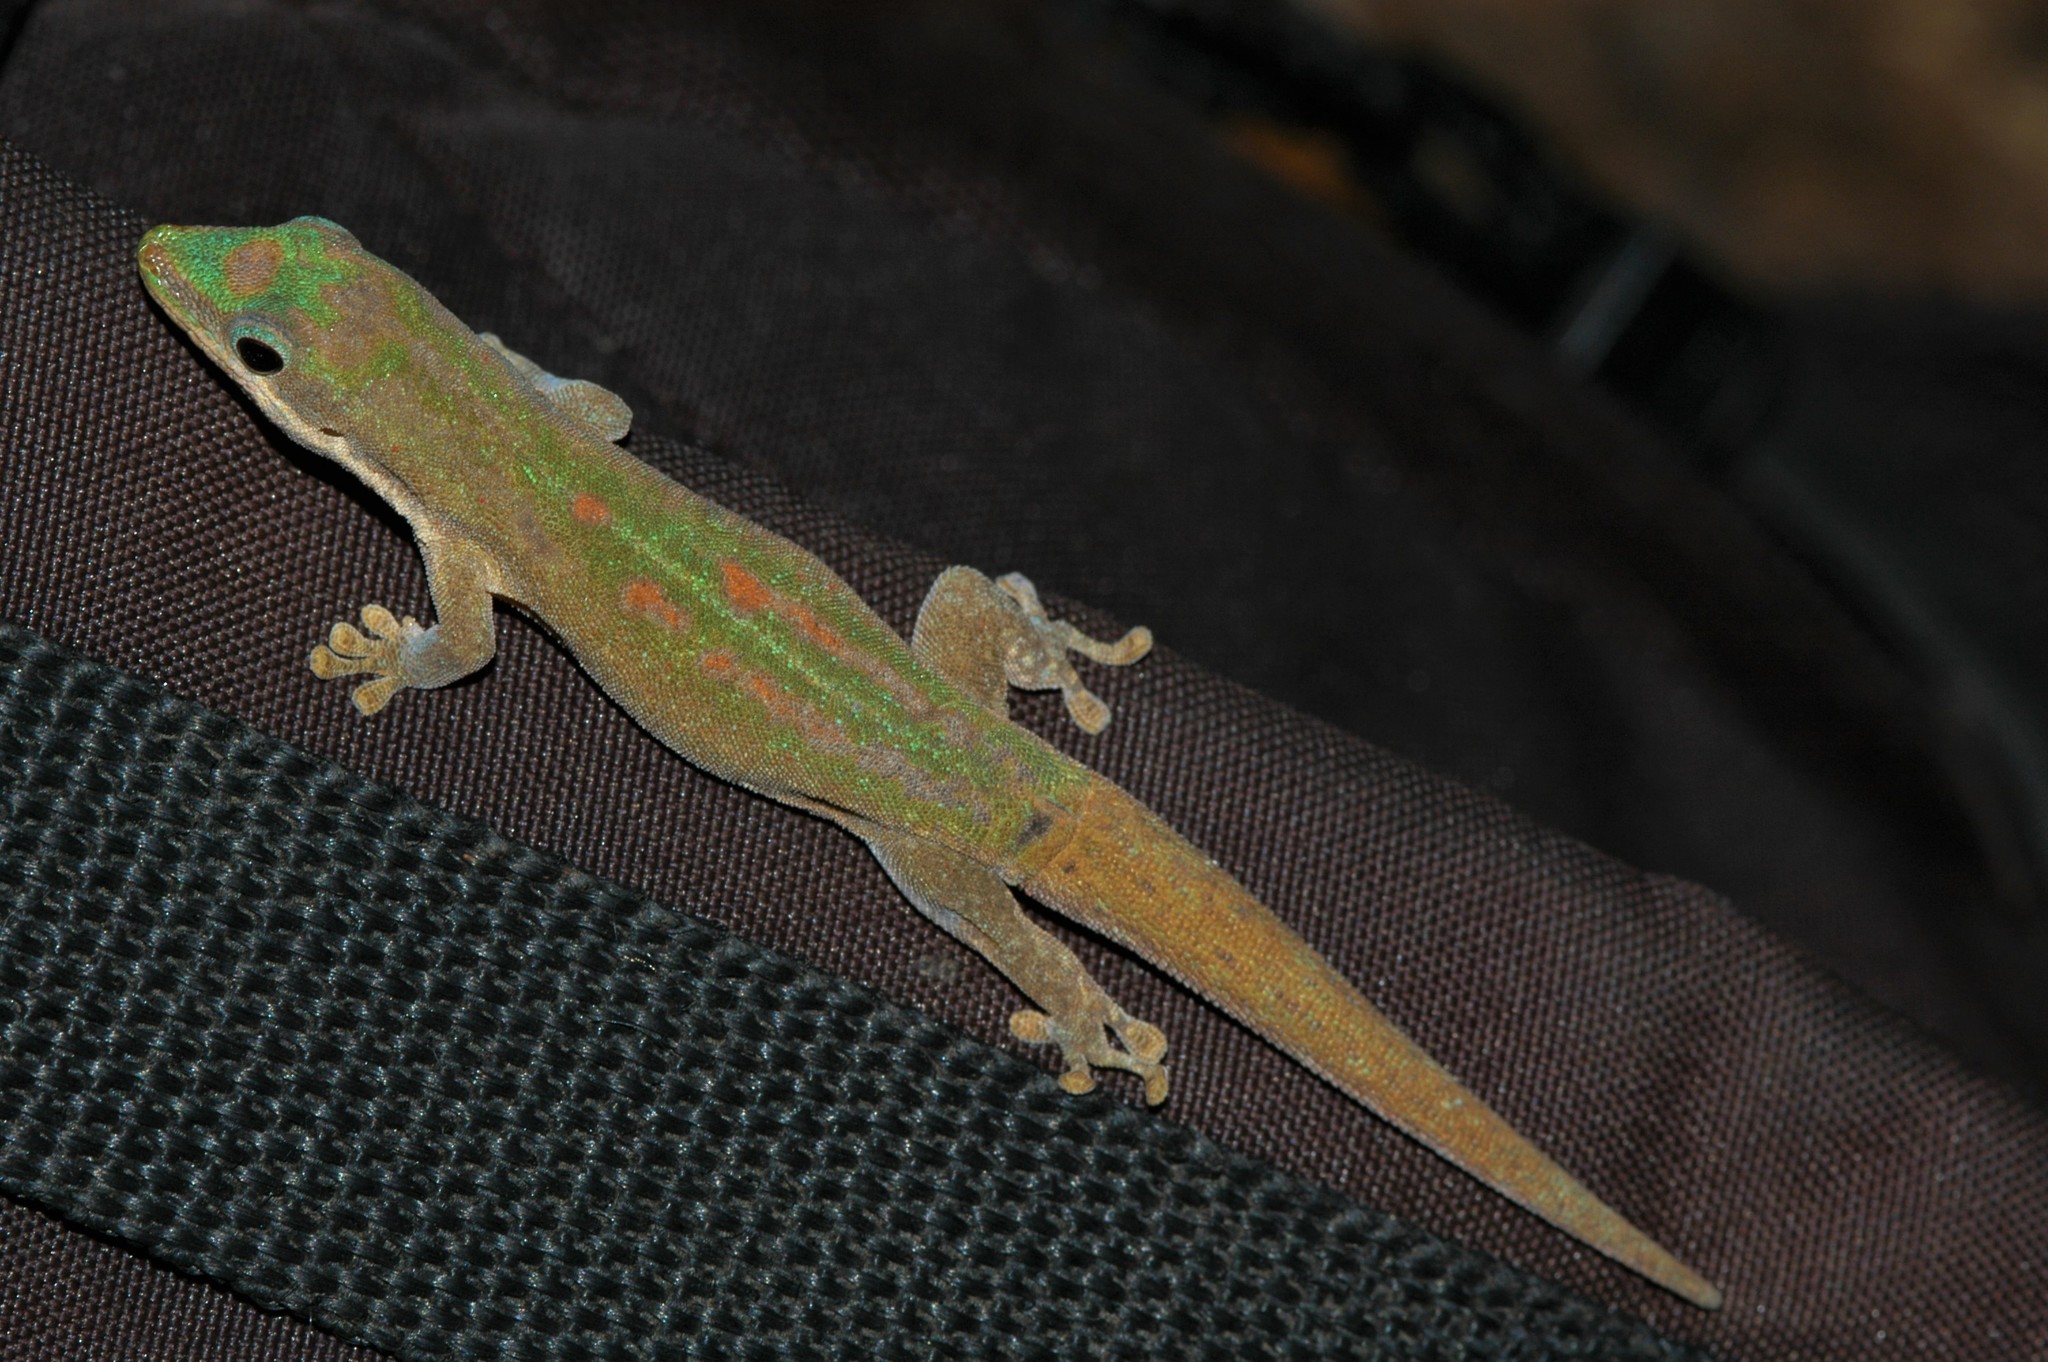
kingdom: Animalia
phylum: Chordata
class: Squamata
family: Gekkonidae
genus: Phelsuma
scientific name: Phelsuma modesta
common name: Modest day gecko
